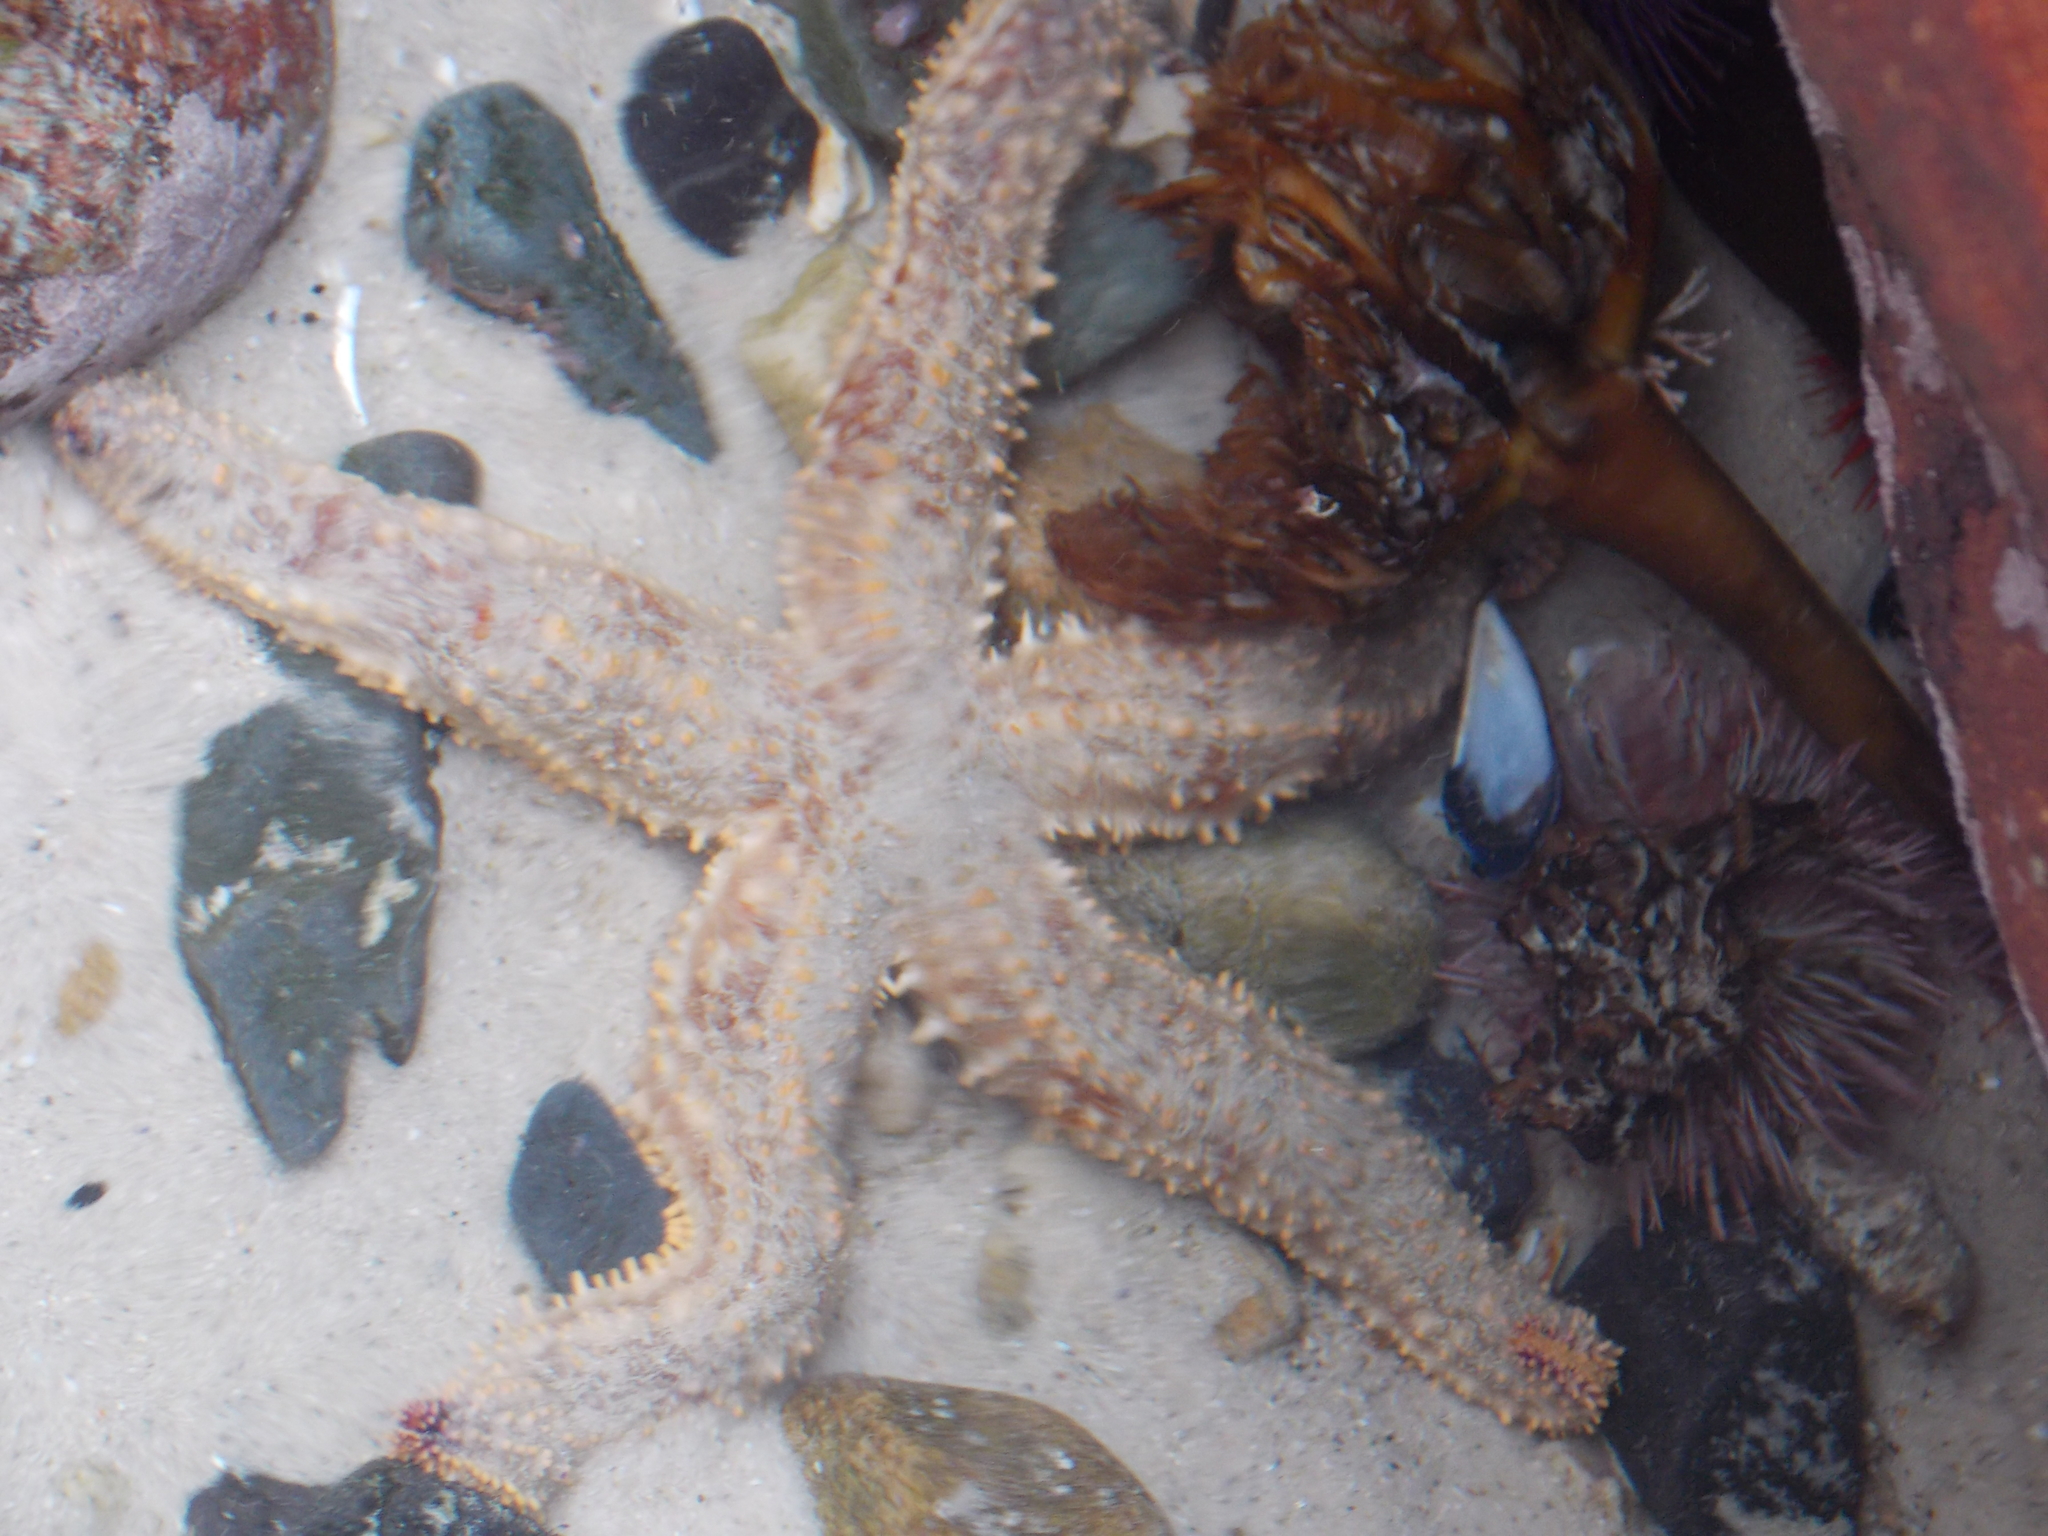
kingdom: Animalia
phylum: Echinodermata
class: Asteroidea
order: Forcipulatida
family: Asteriidae
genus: Marthasterias
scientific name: Marthasterias africana
